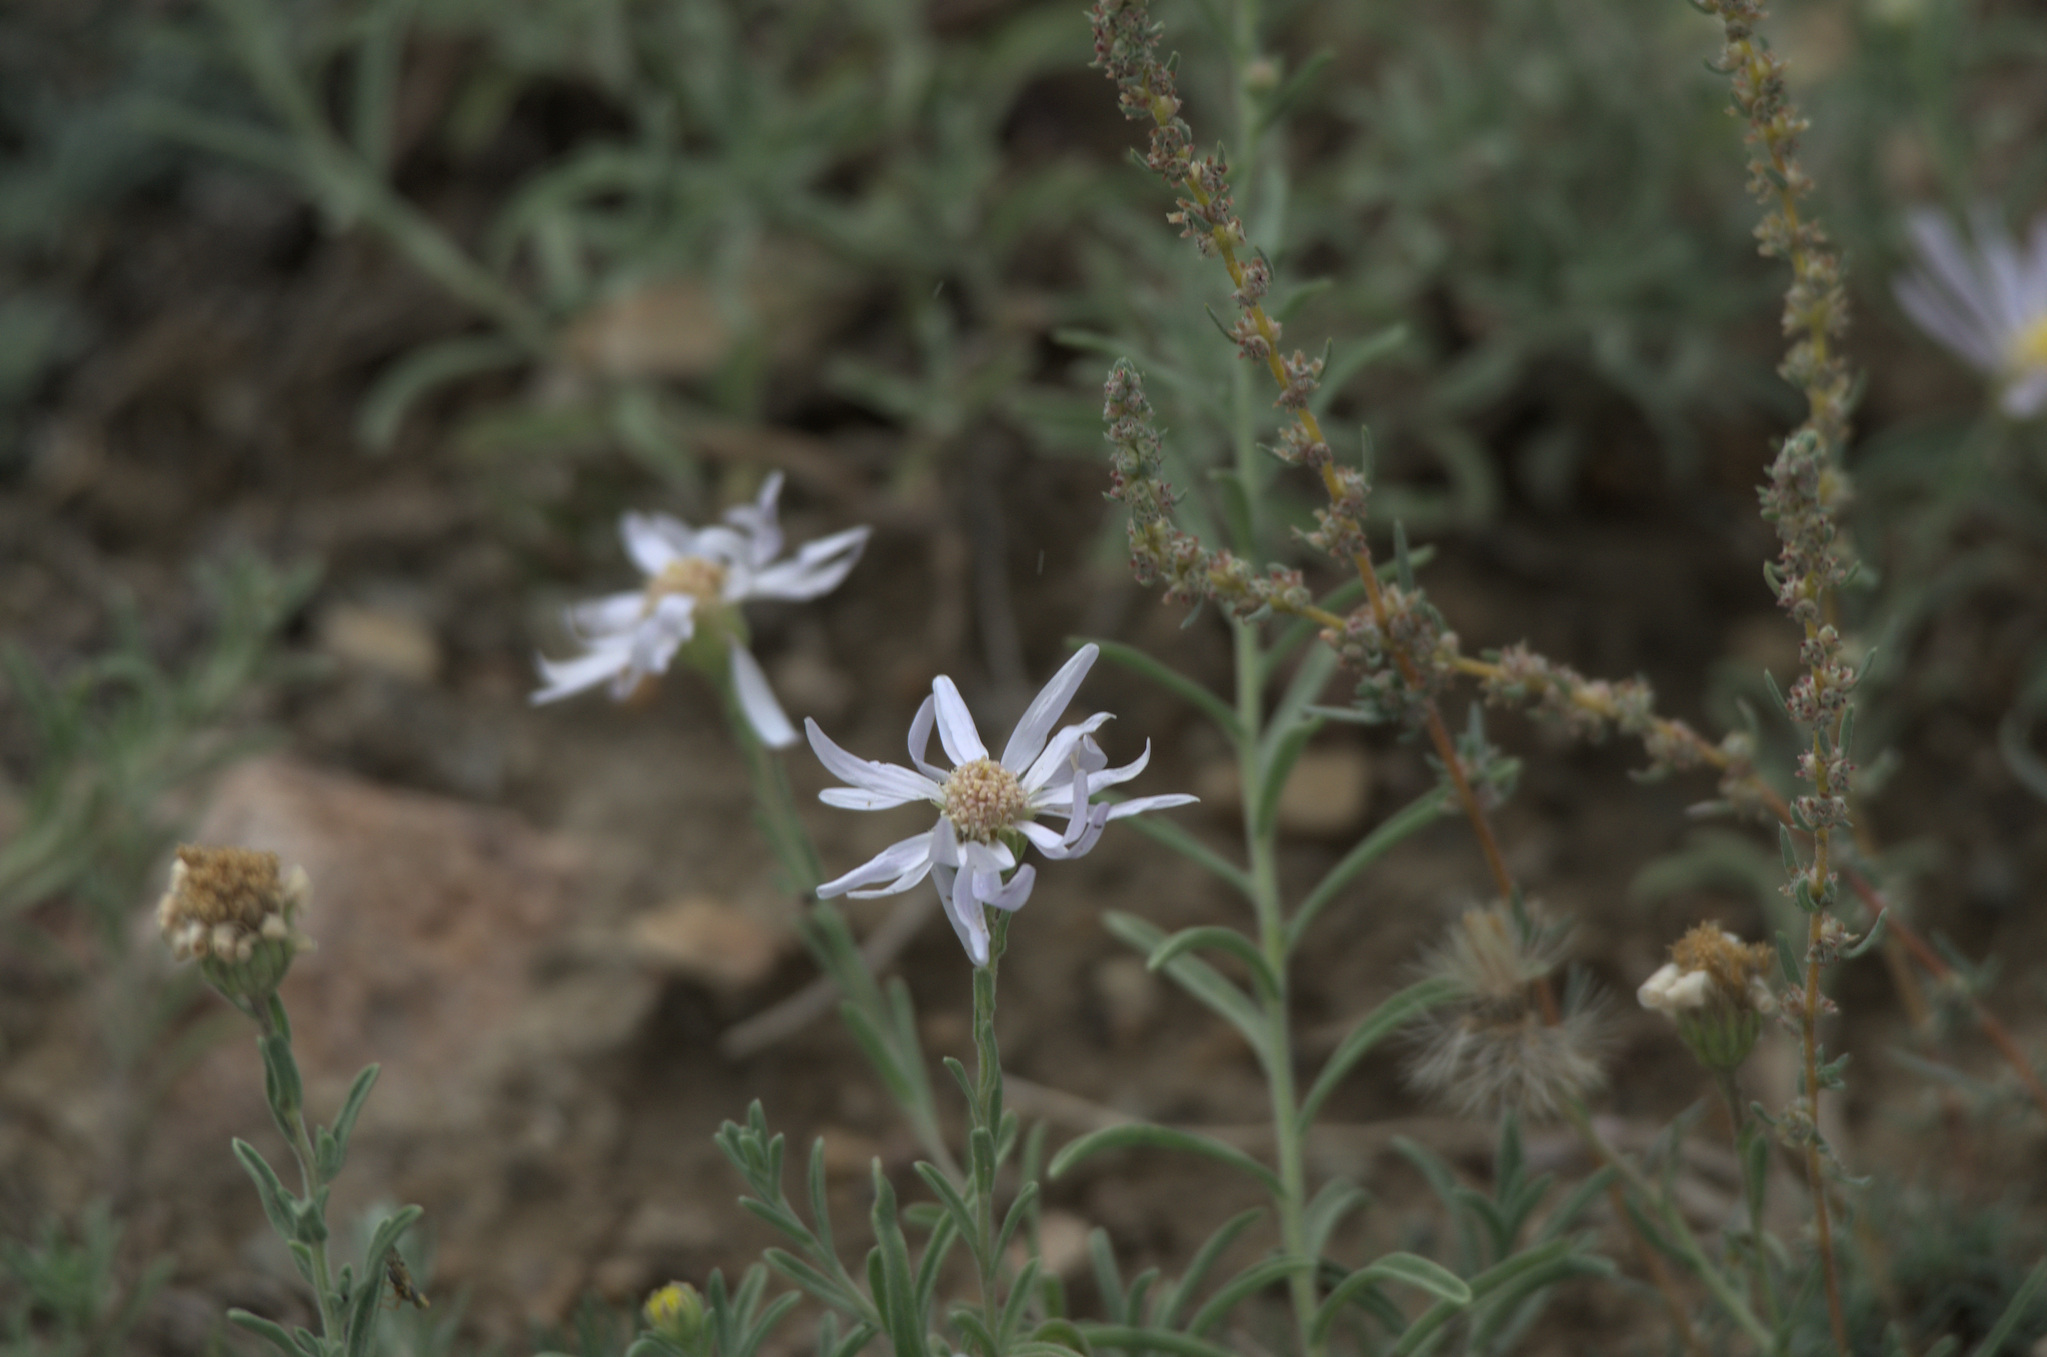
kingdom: Plantae
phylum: Tracheophyta
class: Magnoliopsida
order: Asterales
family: Asteraceae
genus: Heteropappus
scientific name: Heteropappus altaicus
